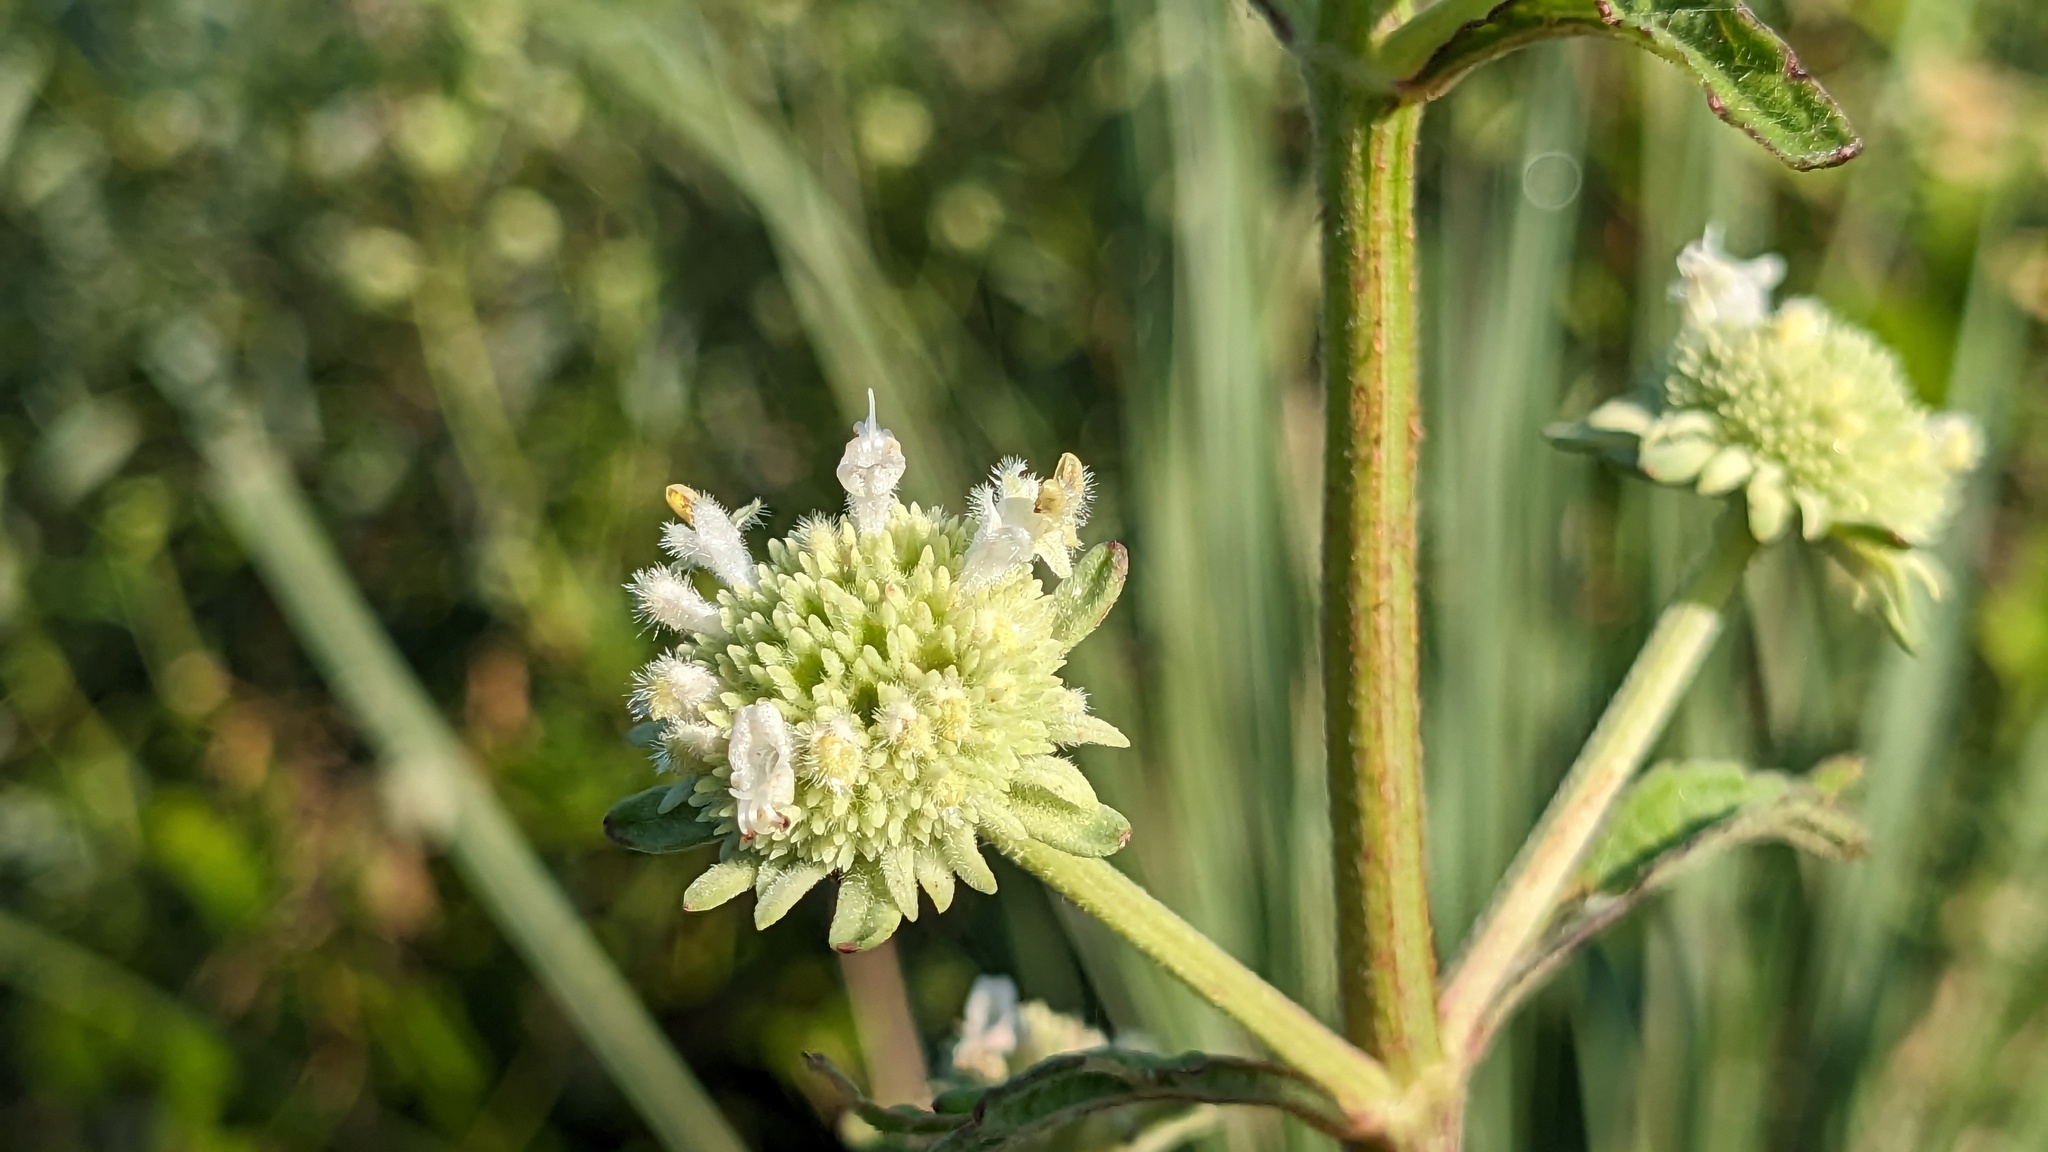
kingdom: Plantae
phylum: Tracheophyta
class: Magnoliopsida
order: Lamiales
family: Lamiaceae
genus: Hyptis
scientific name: Hyptis alata
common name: Cluster bush-mint
